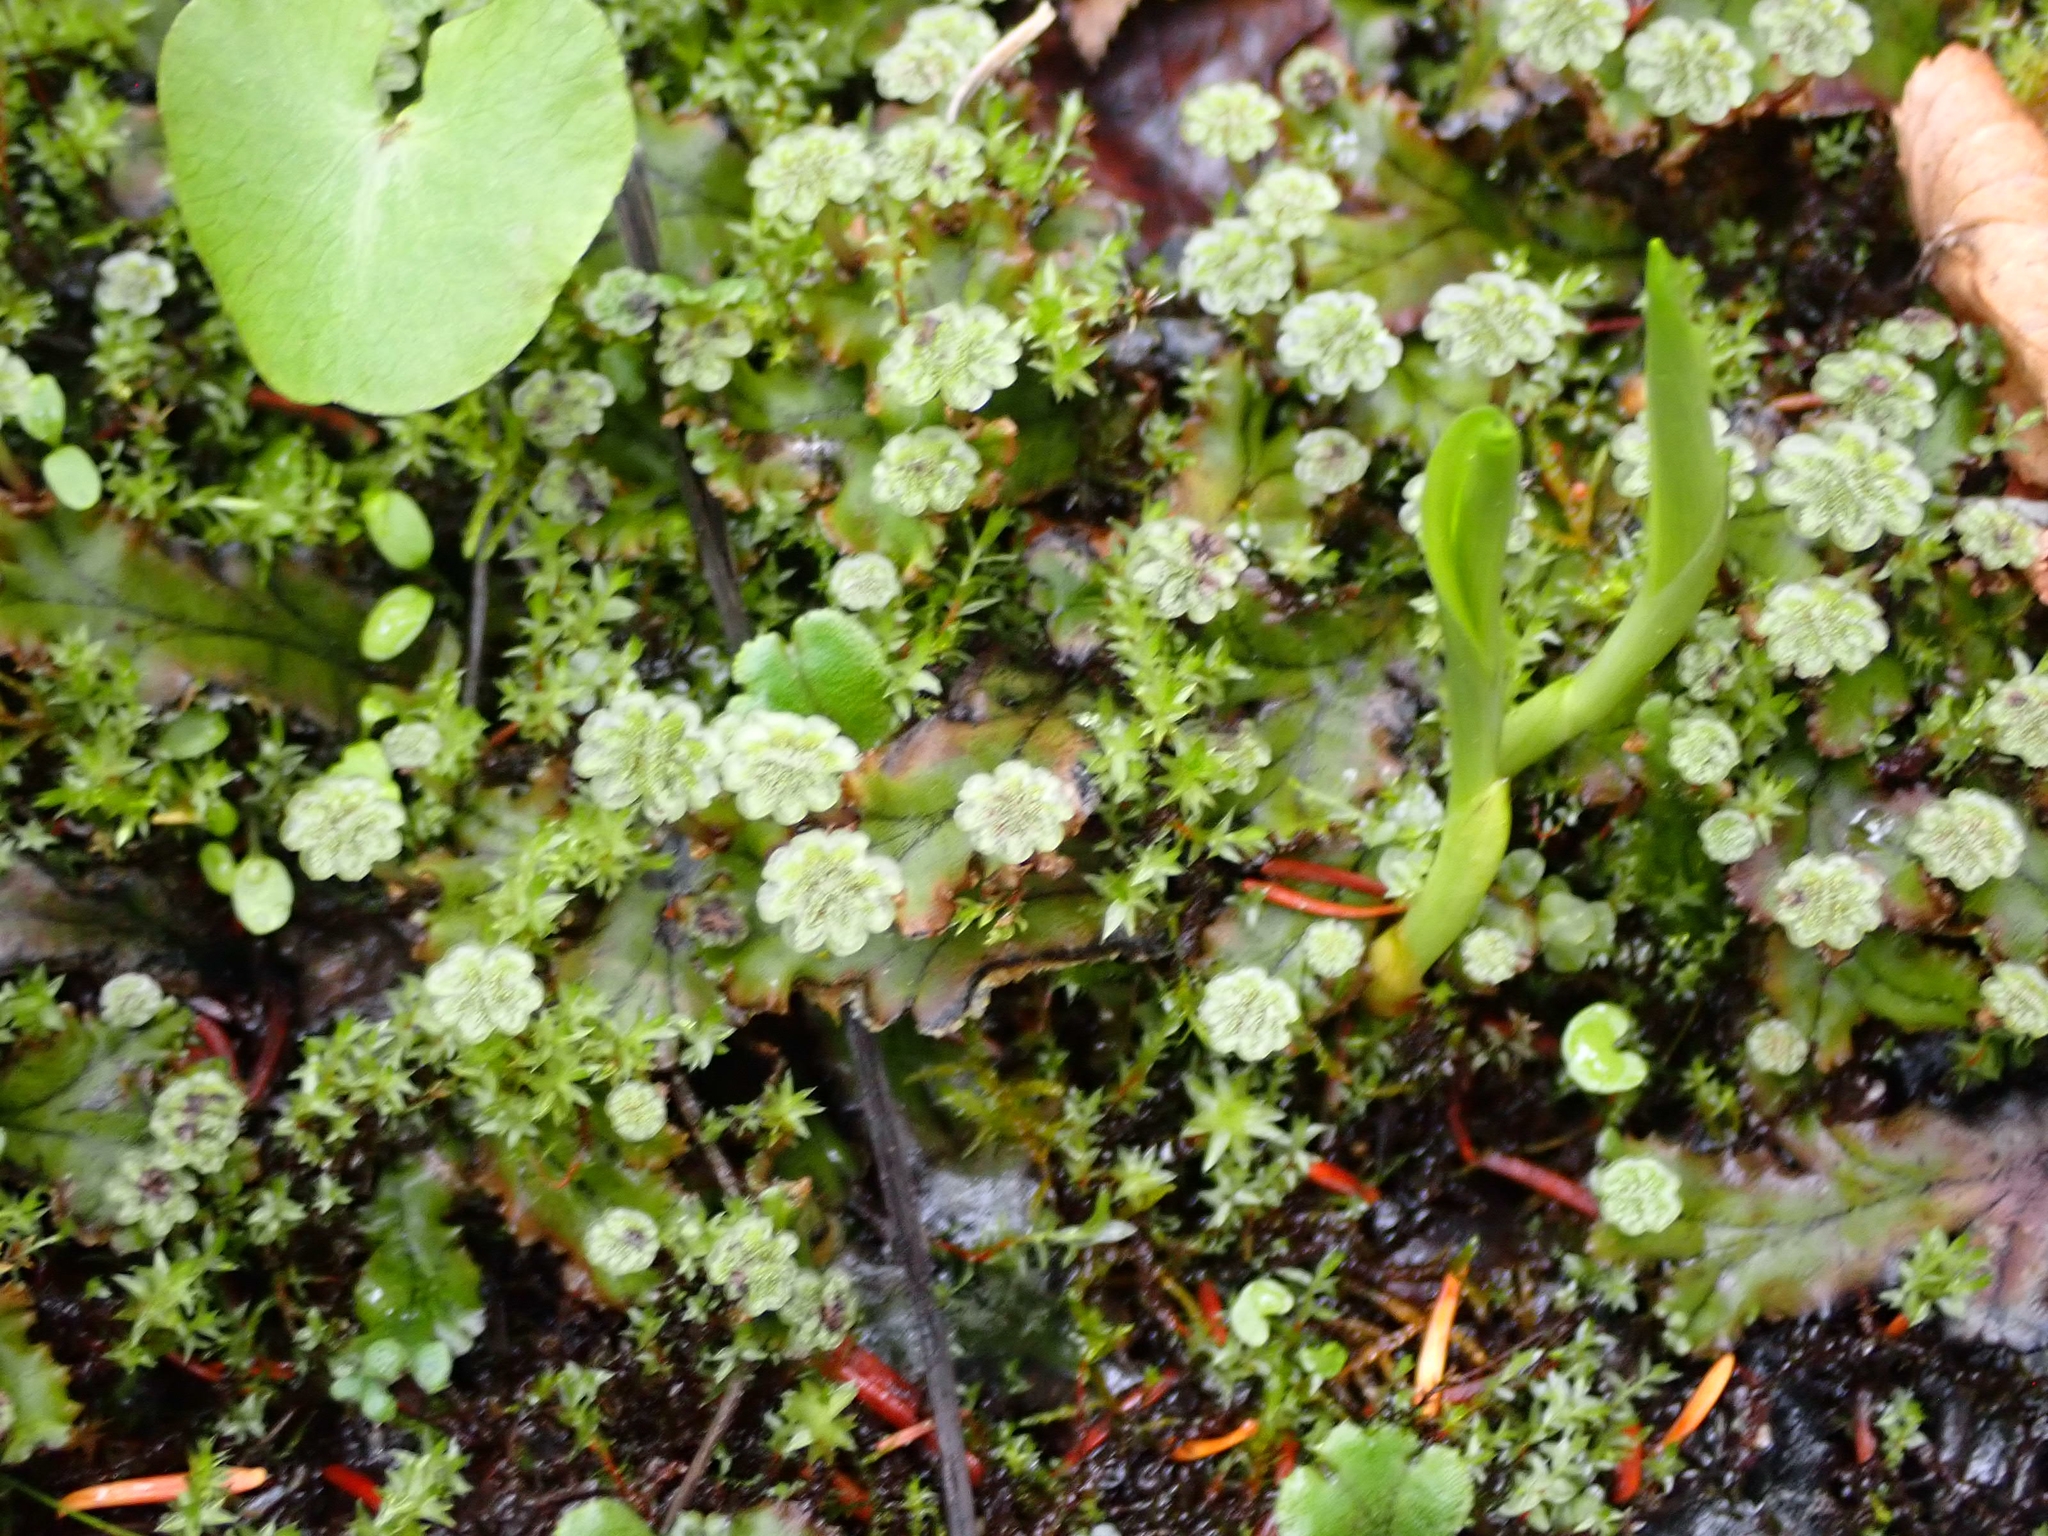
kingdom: Plantae
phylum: Marchantiophyta
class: Marchantiopsida
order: Marchantiales
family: Marchantiaceae
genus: Marchantia
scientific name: Marchantia polymorpha
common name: Common liverwort
